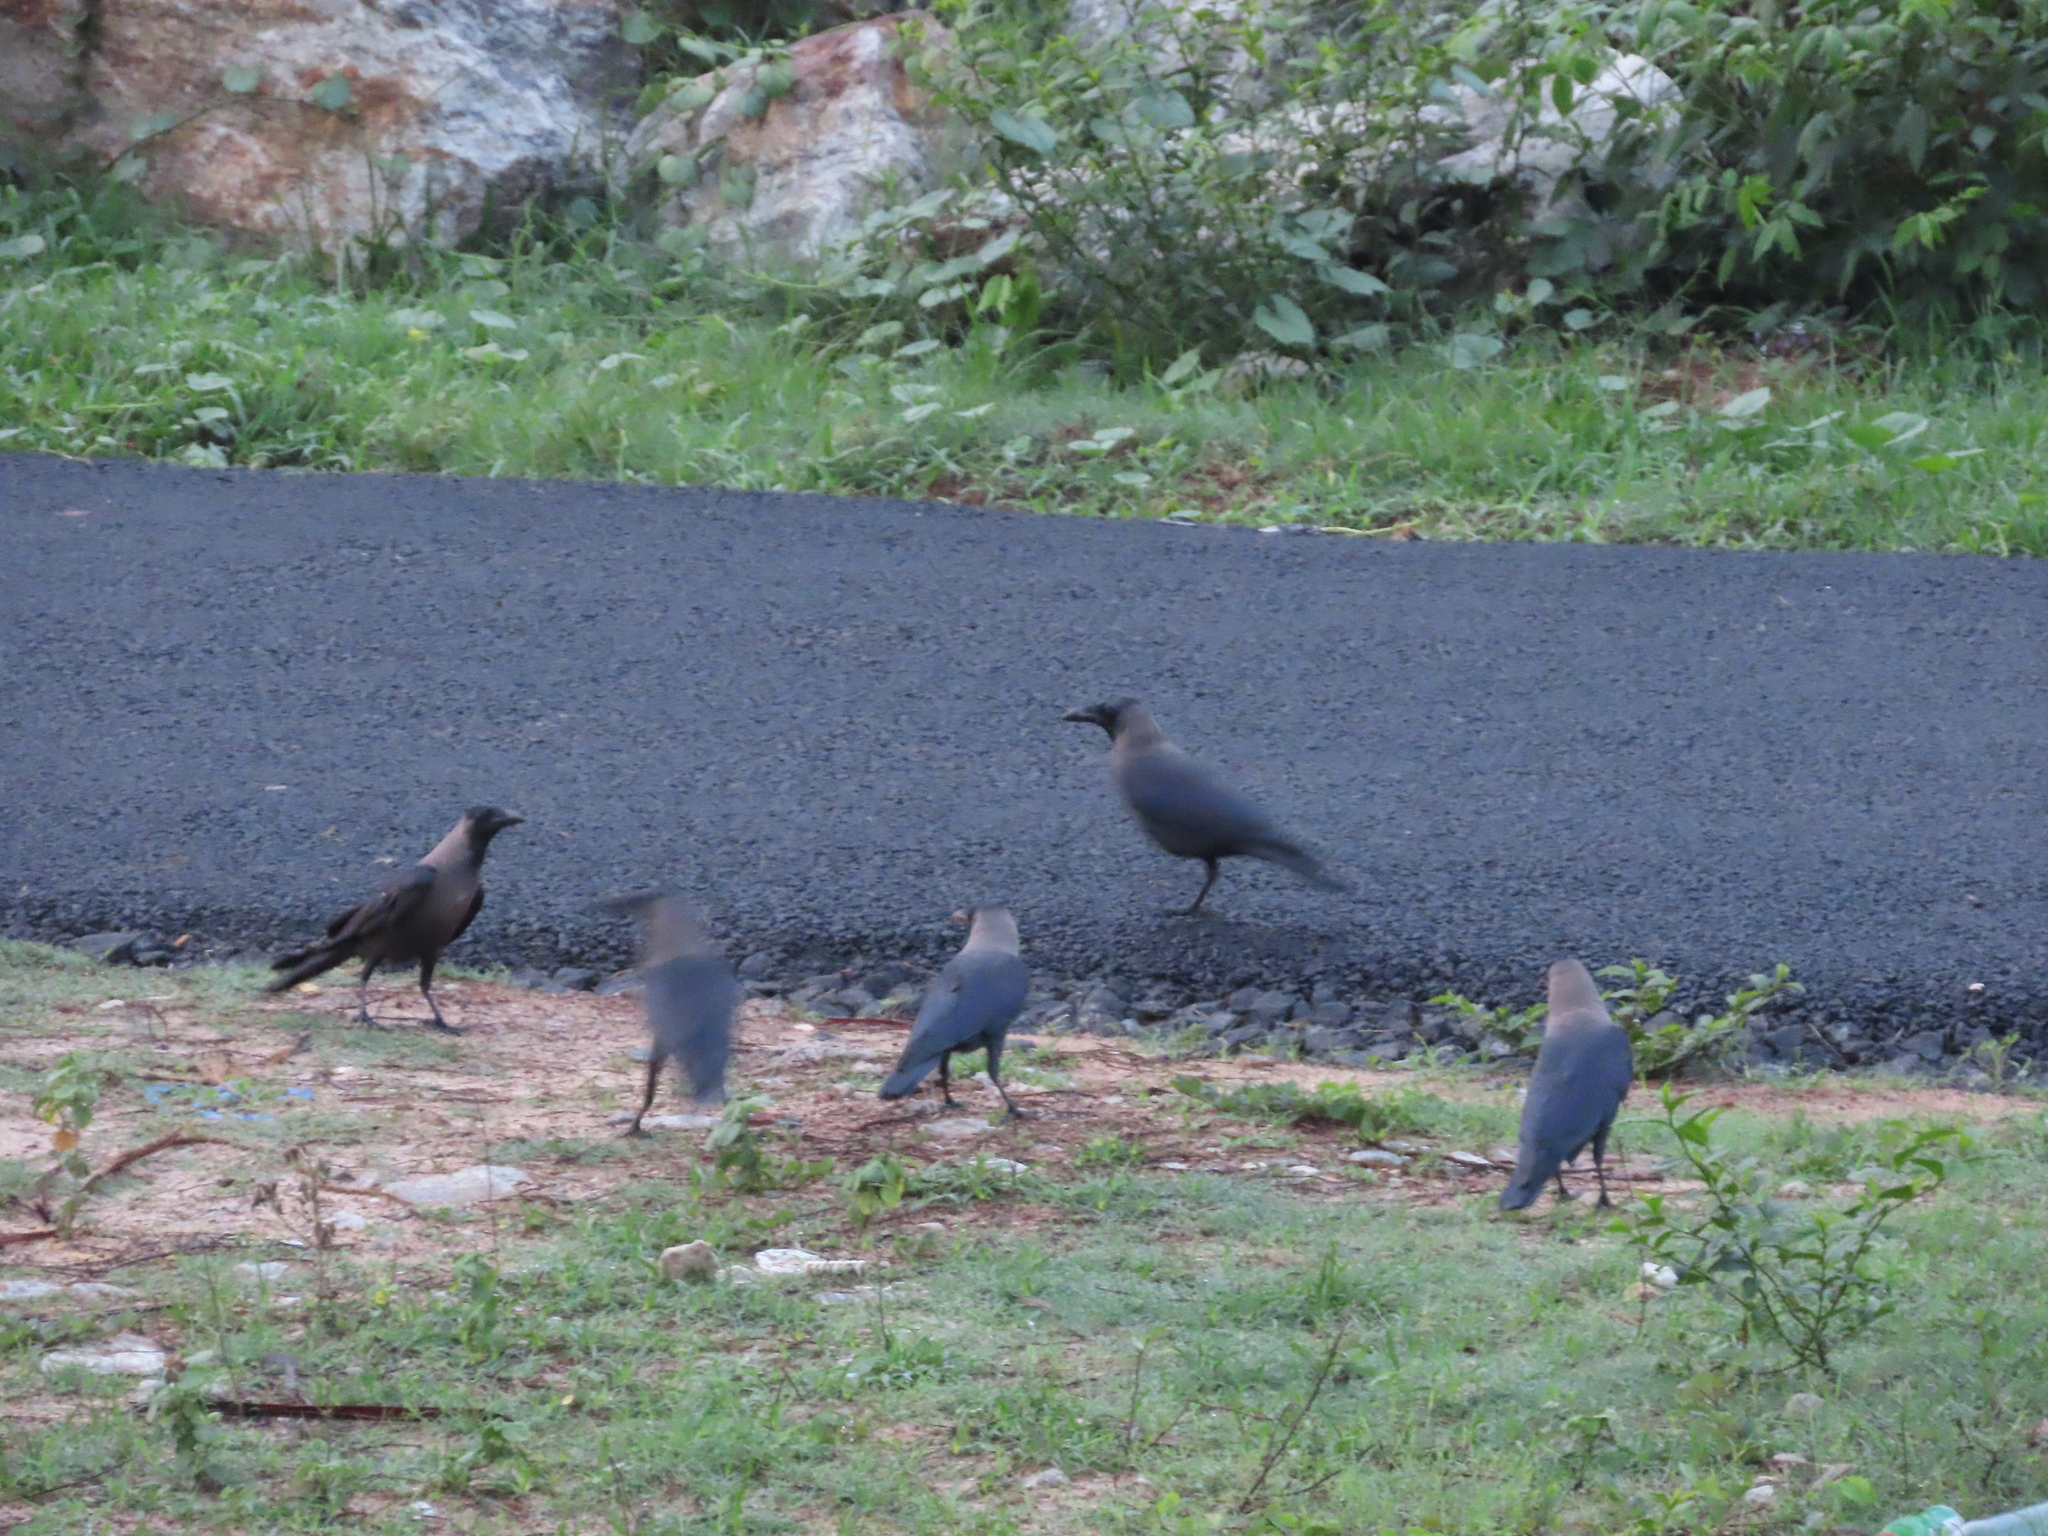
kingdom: Animalia
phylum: Chordata
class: Aves
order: Passeriformes
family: Corvidae
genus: Corvus
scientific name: Corvus splendens
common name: House crow
